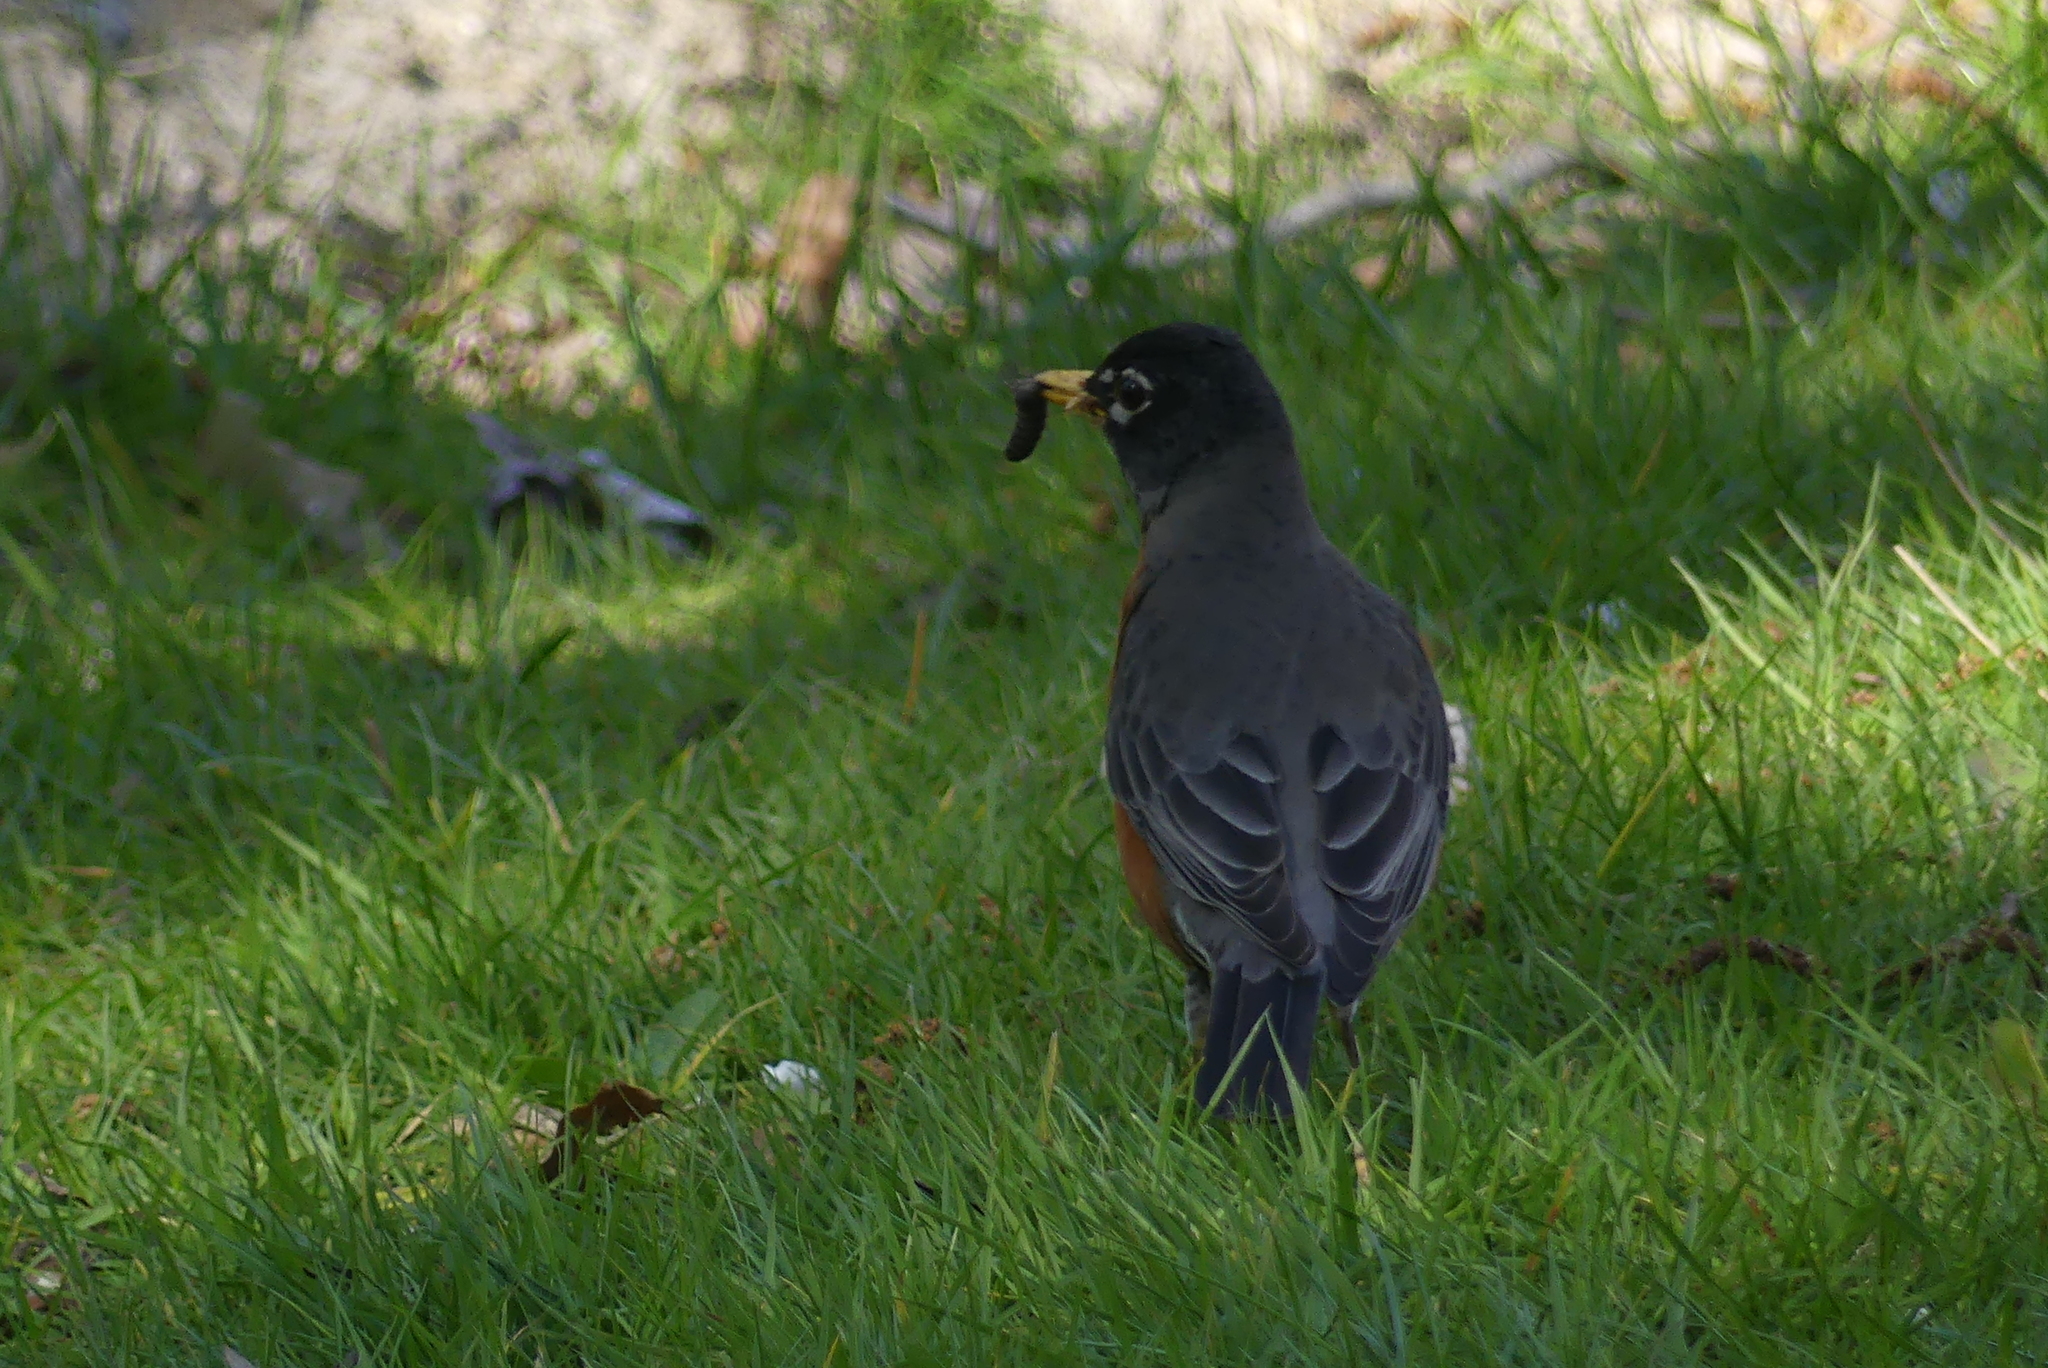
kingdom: Animalia
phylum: Chordata
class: Aves
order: Passeriformes
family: Turdidae
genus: Turdus
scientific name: Turdus migratorius
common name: American robin
